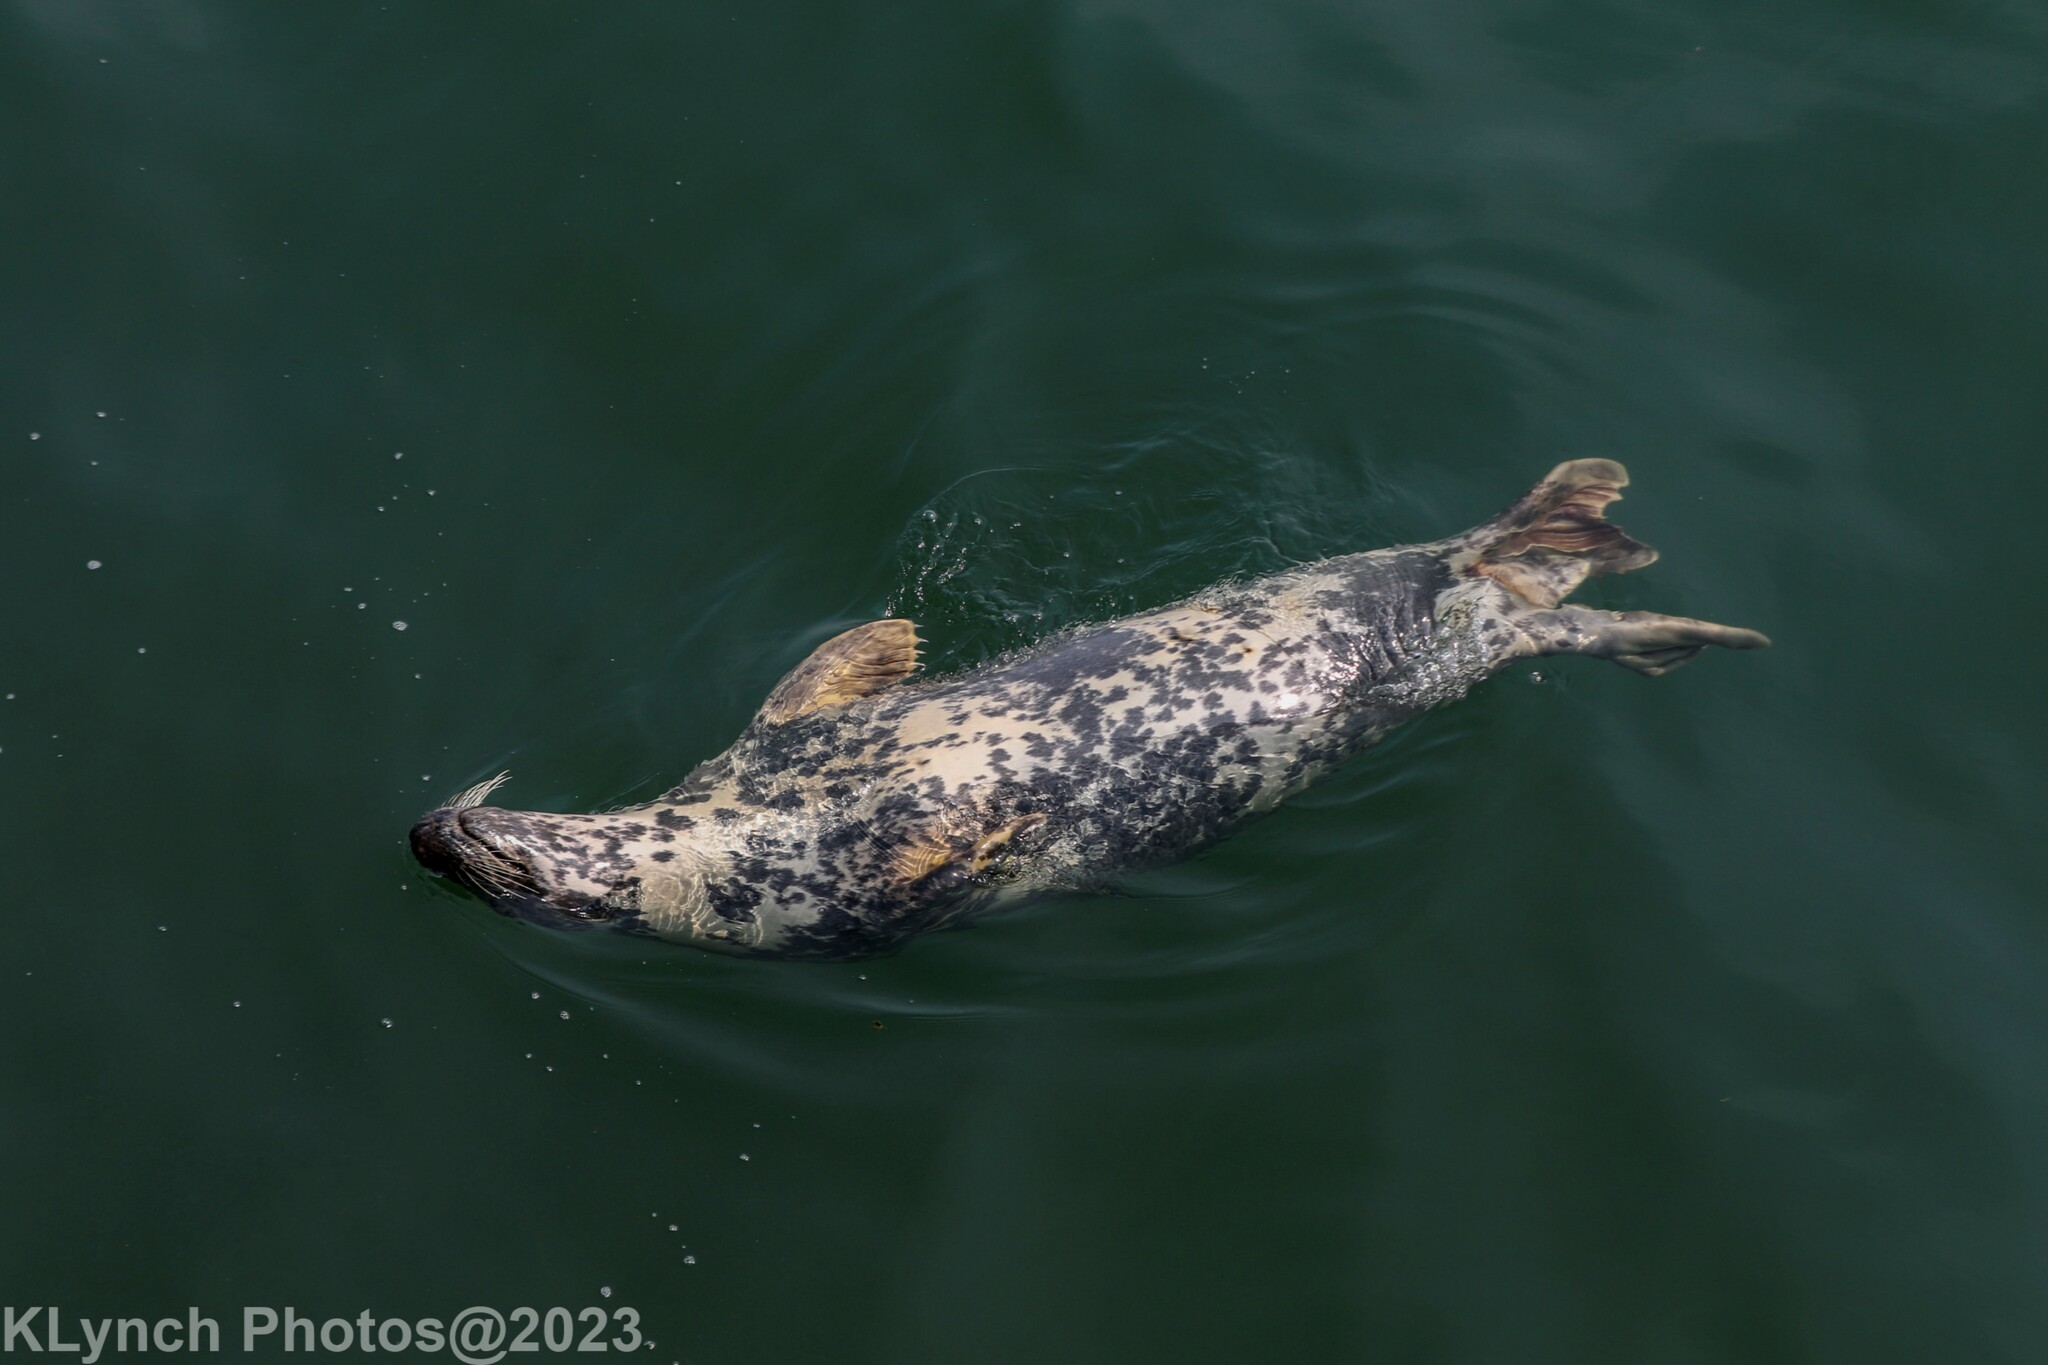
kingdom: Animalia
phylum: Chordata
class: Mammalia
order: Carnivora
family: Phocidae
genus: Halichoerus
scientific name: Halichoerus grypus
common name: Grey seal
